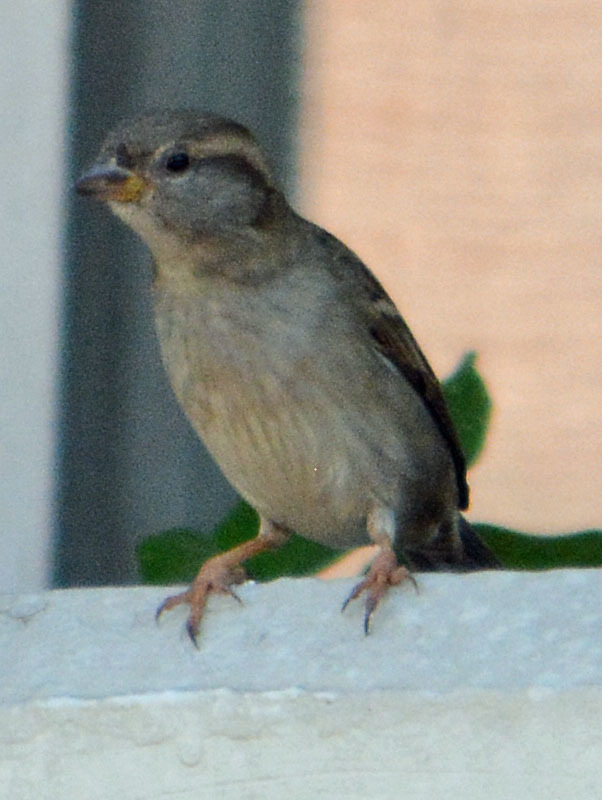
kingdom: Animalia
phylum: Chordata
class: Aves
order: Passeriformes
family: Passeridae
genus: Passer
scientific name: Passer domesticus
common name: House sparrow
